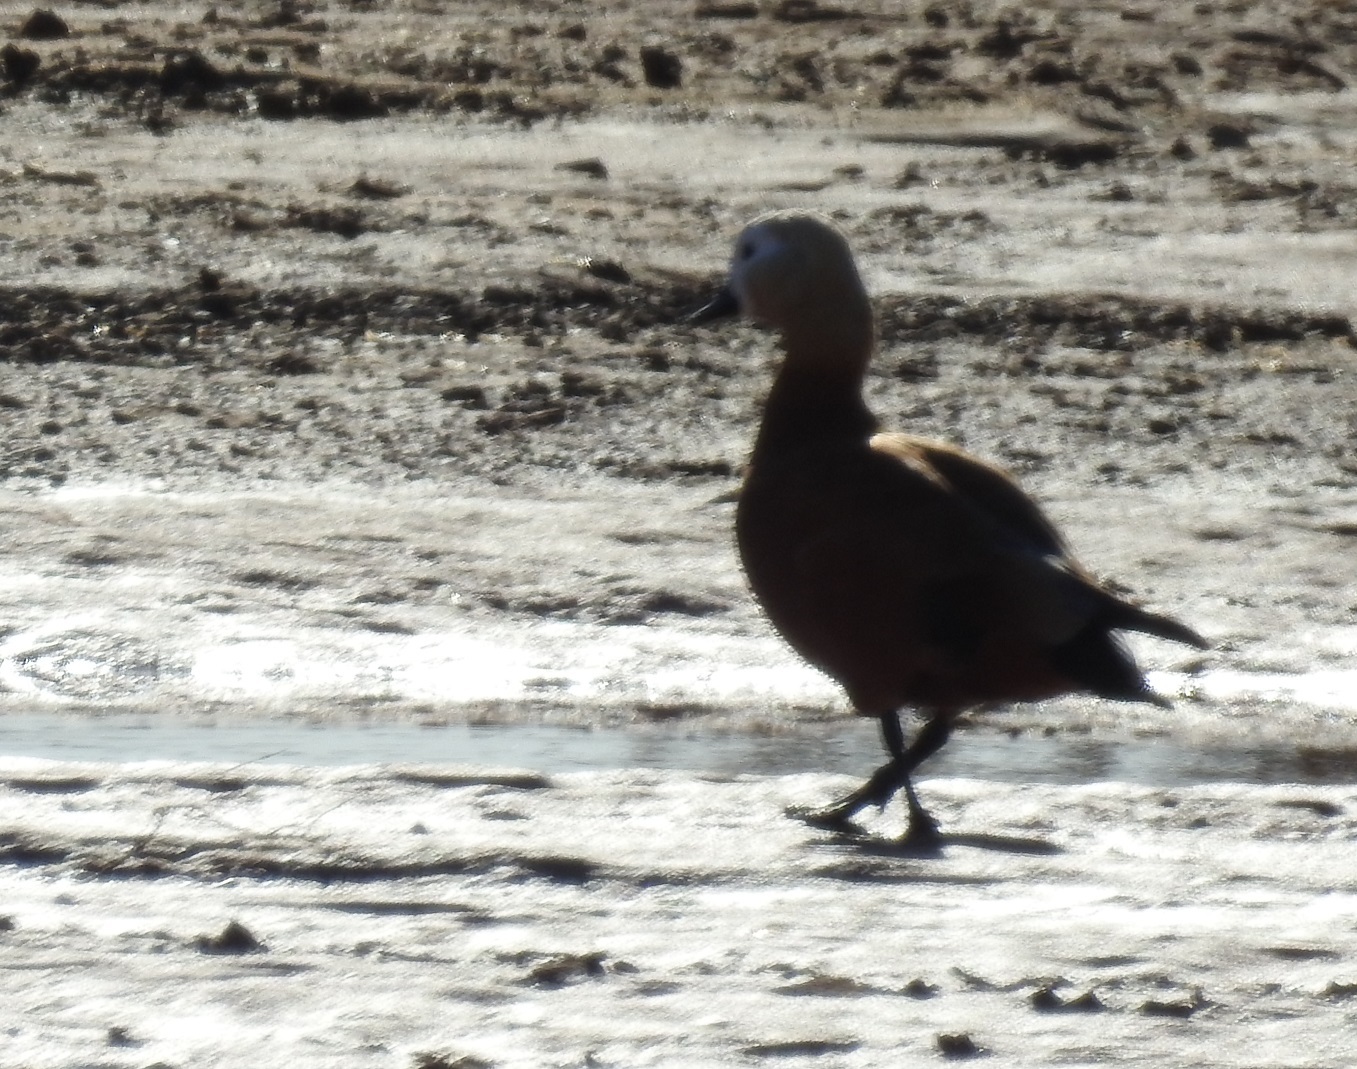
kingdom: Animalia
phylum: Chordata
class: Aves
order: Anseriformes
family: Anatidae
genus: Tadorna
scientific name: Tadorna ferruginea
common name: Ruddy shelduck
